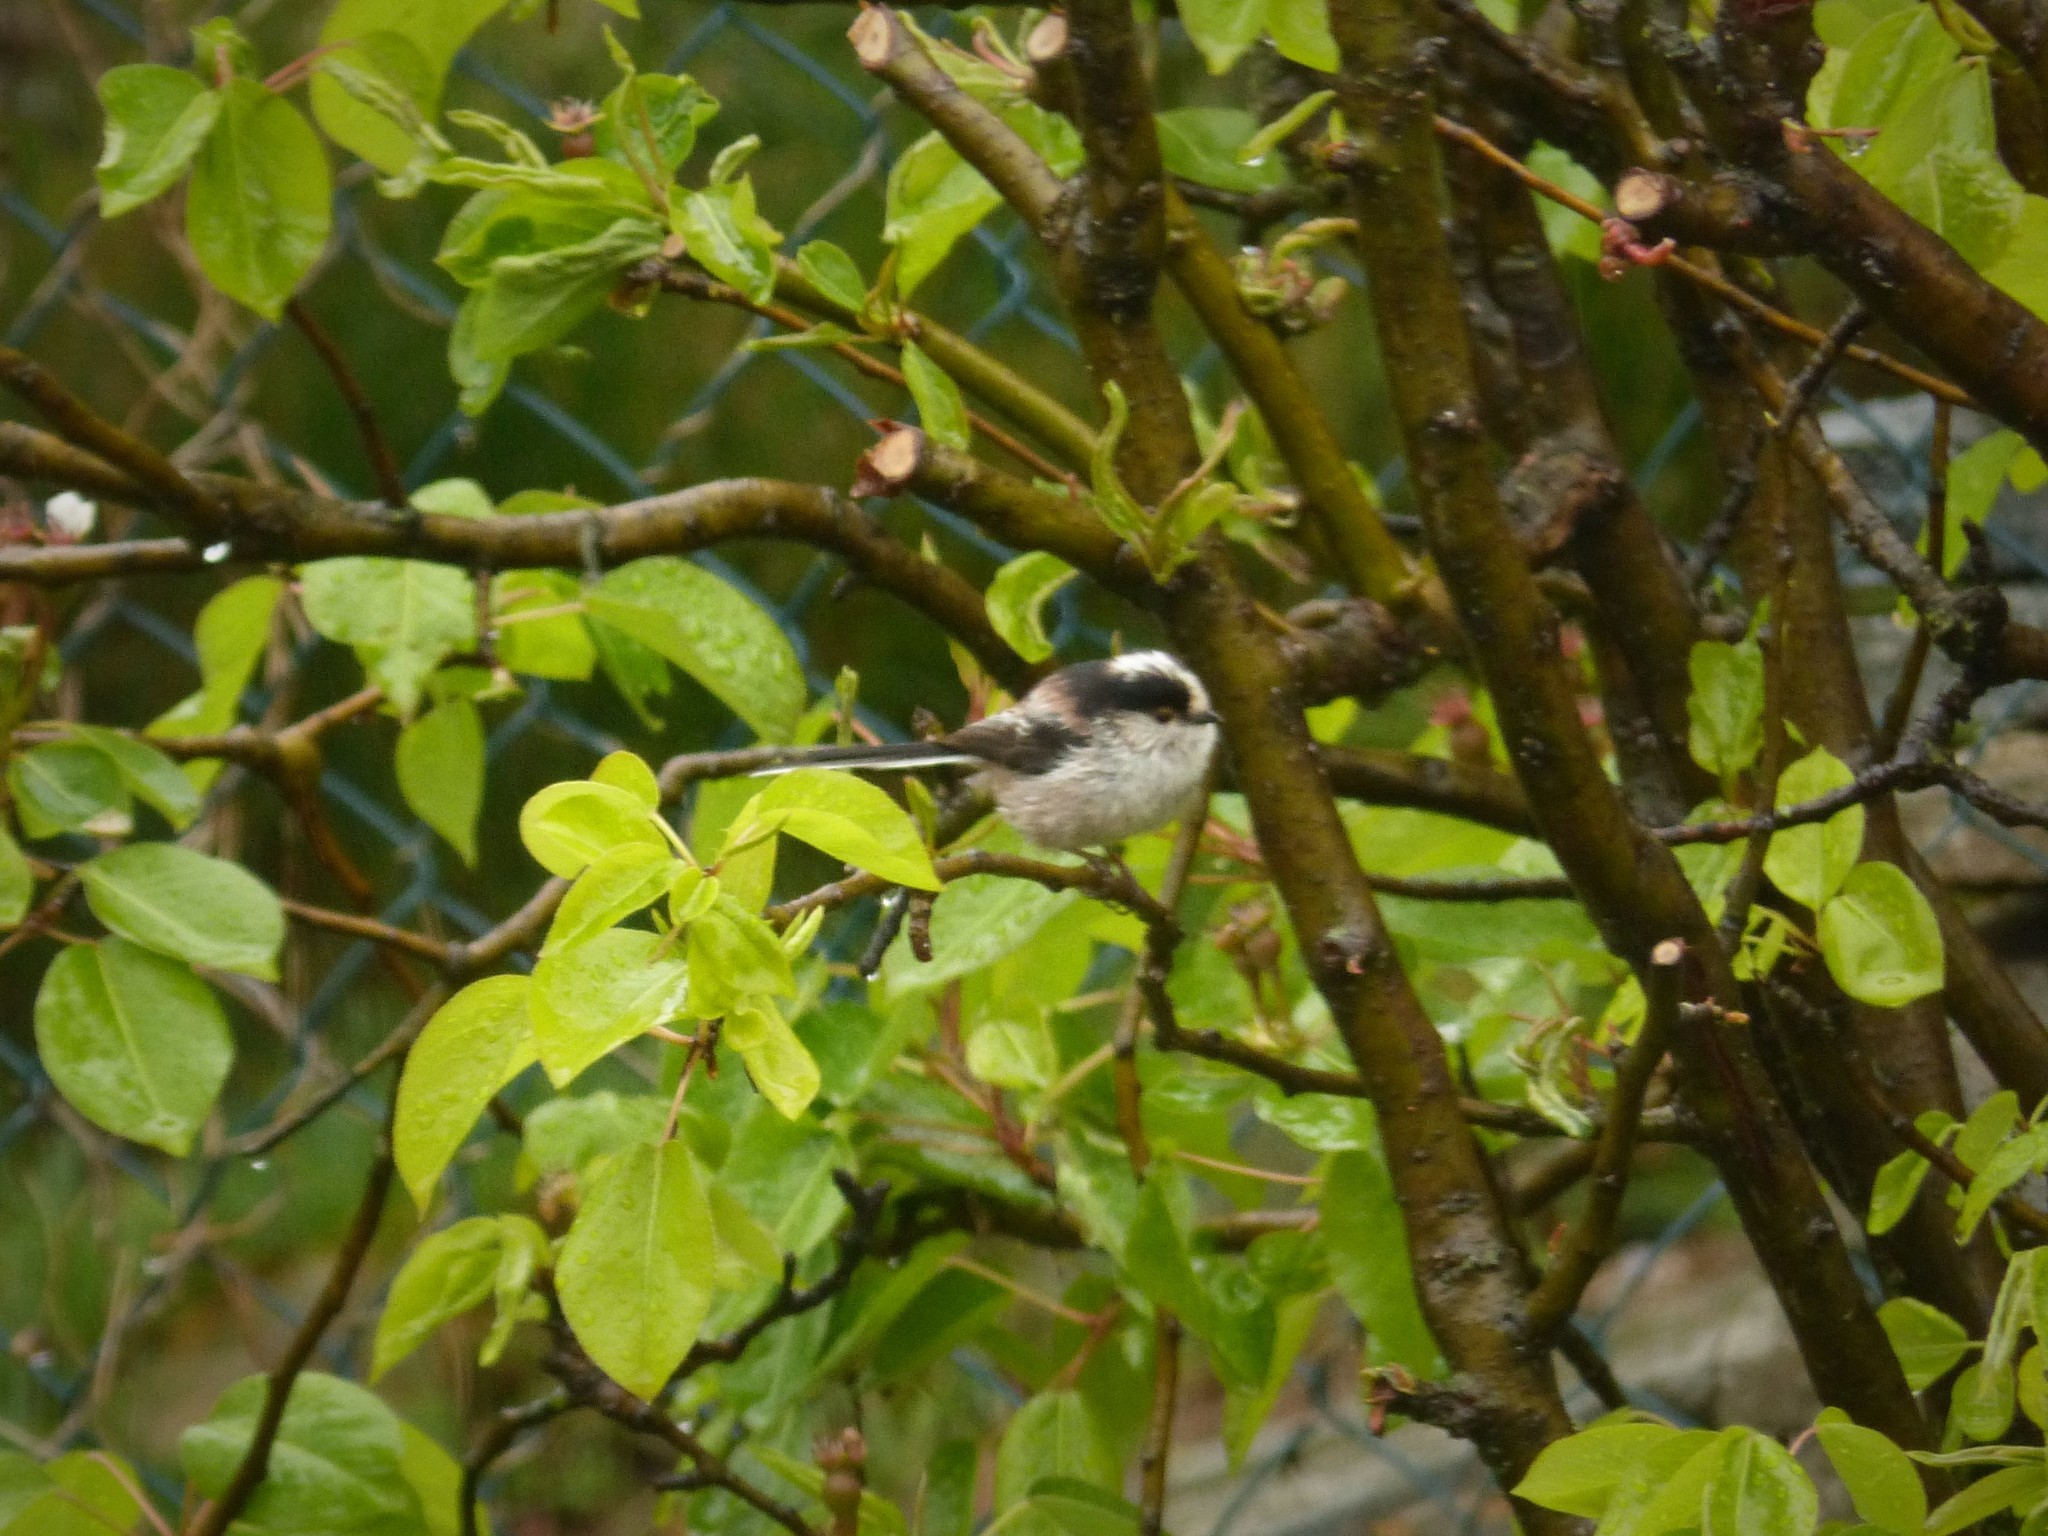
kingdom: Animalia
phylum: Chordata
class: Aves
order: Passeriformes
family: Aegithalidae
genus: Aegithalos
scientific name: Aegithalos caudatus
